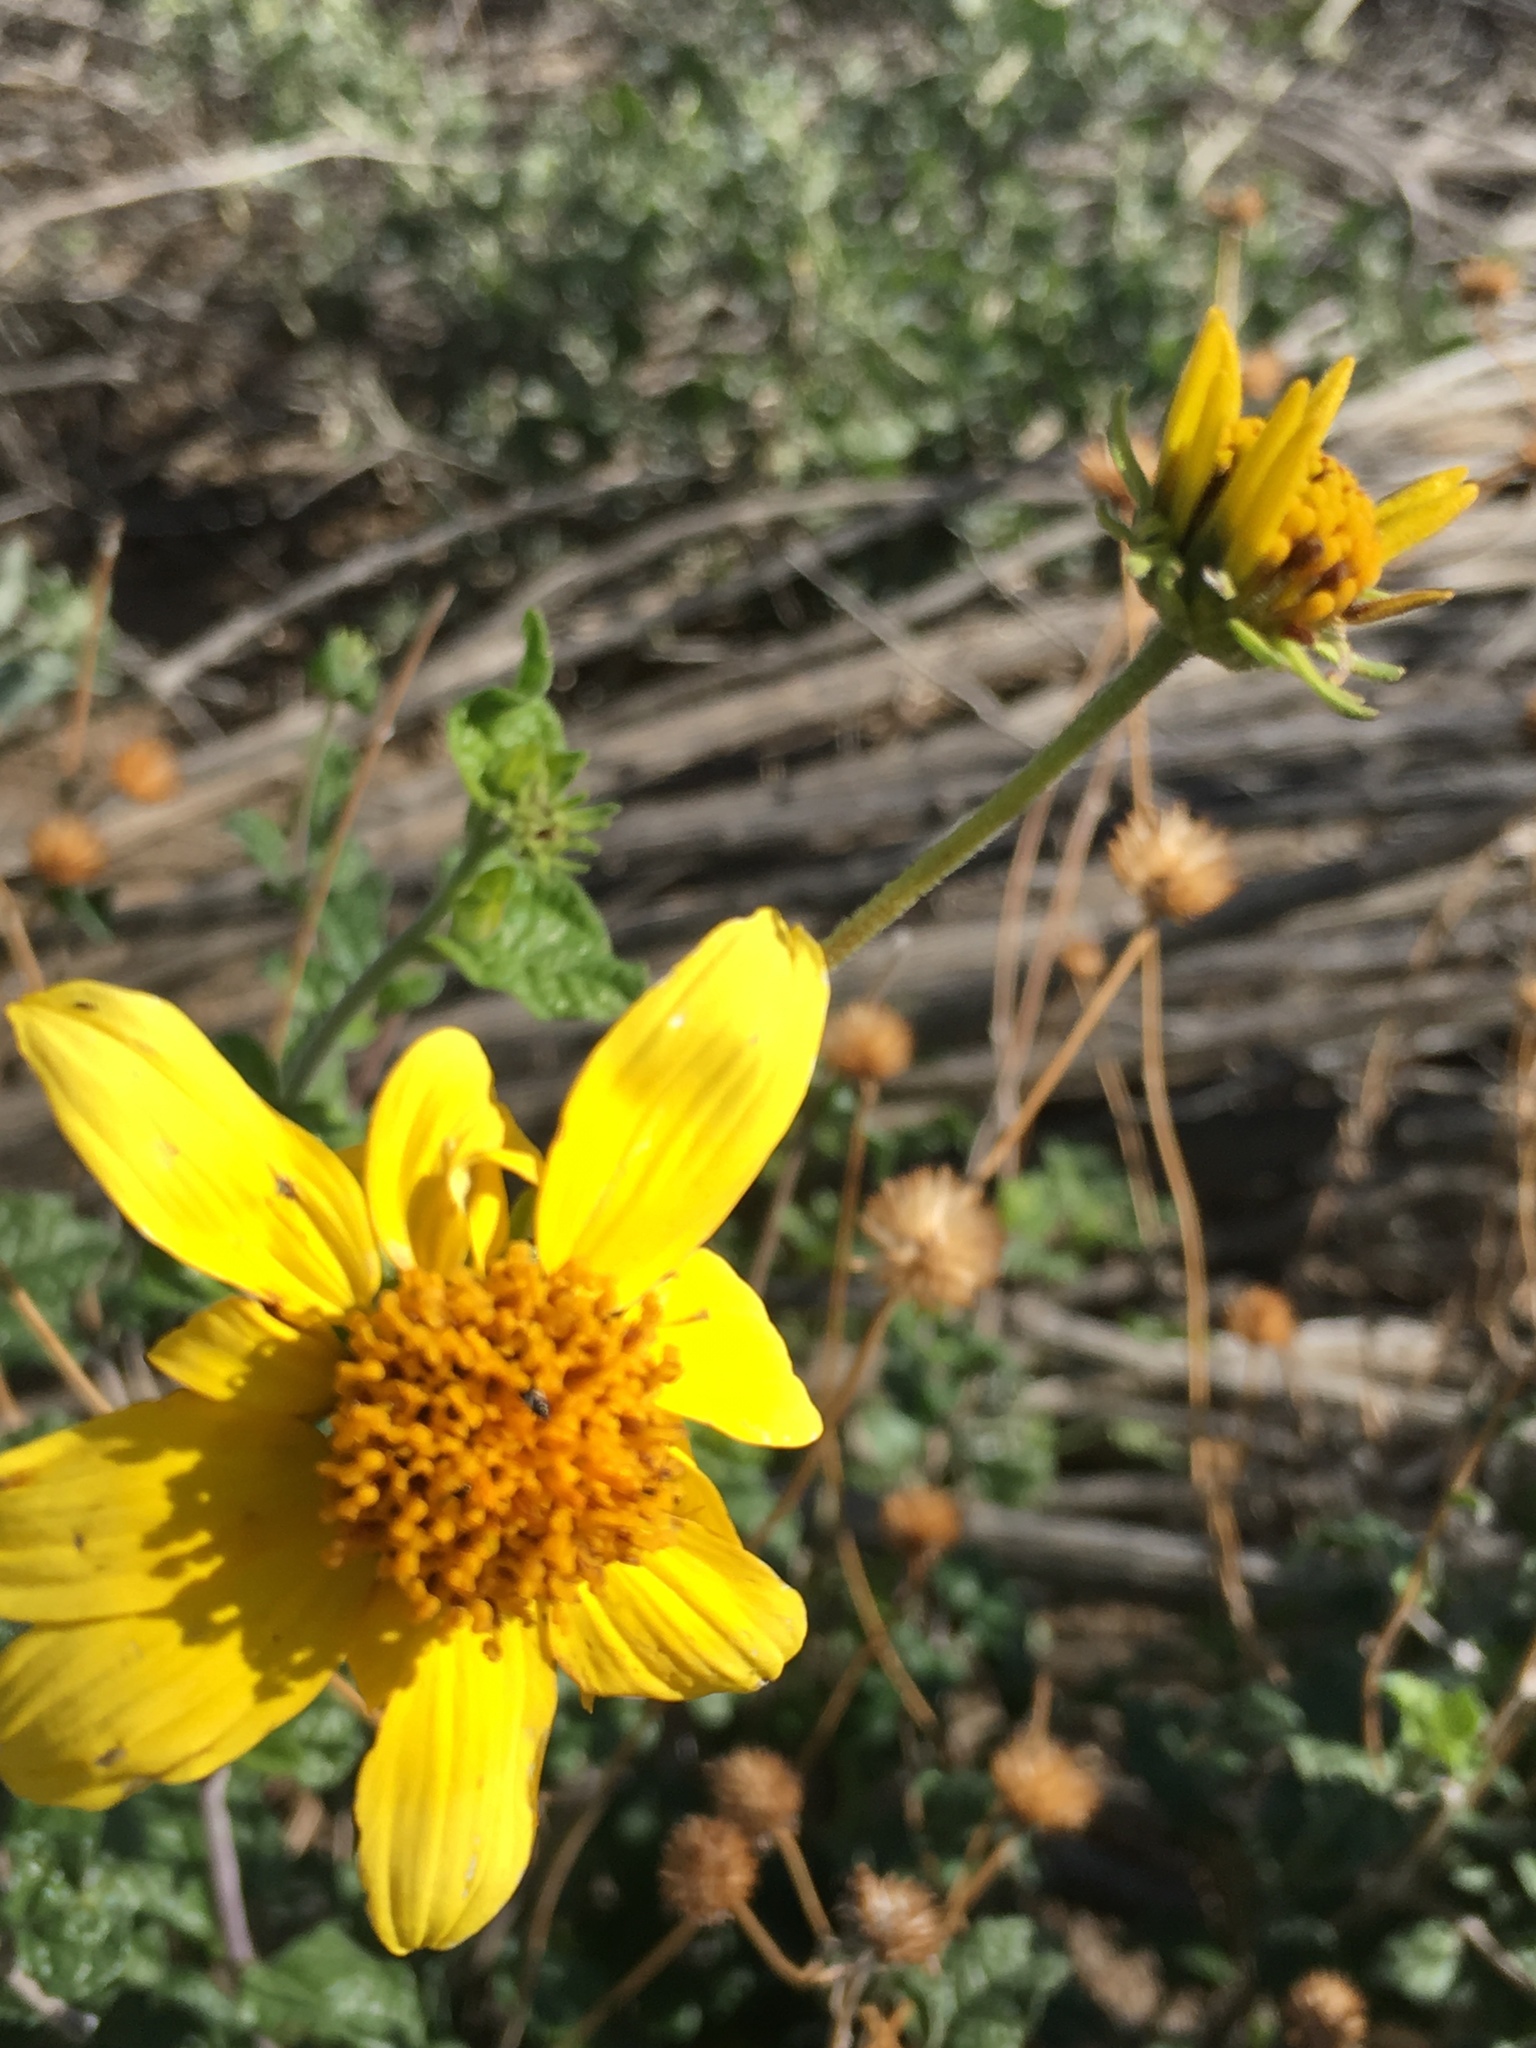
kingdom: Plantae
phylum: Tracheophyta
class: Magnoliopsida
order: Asterales
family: Asteraceae
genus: Bahiopsis
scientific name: Bahiopsis parishii
